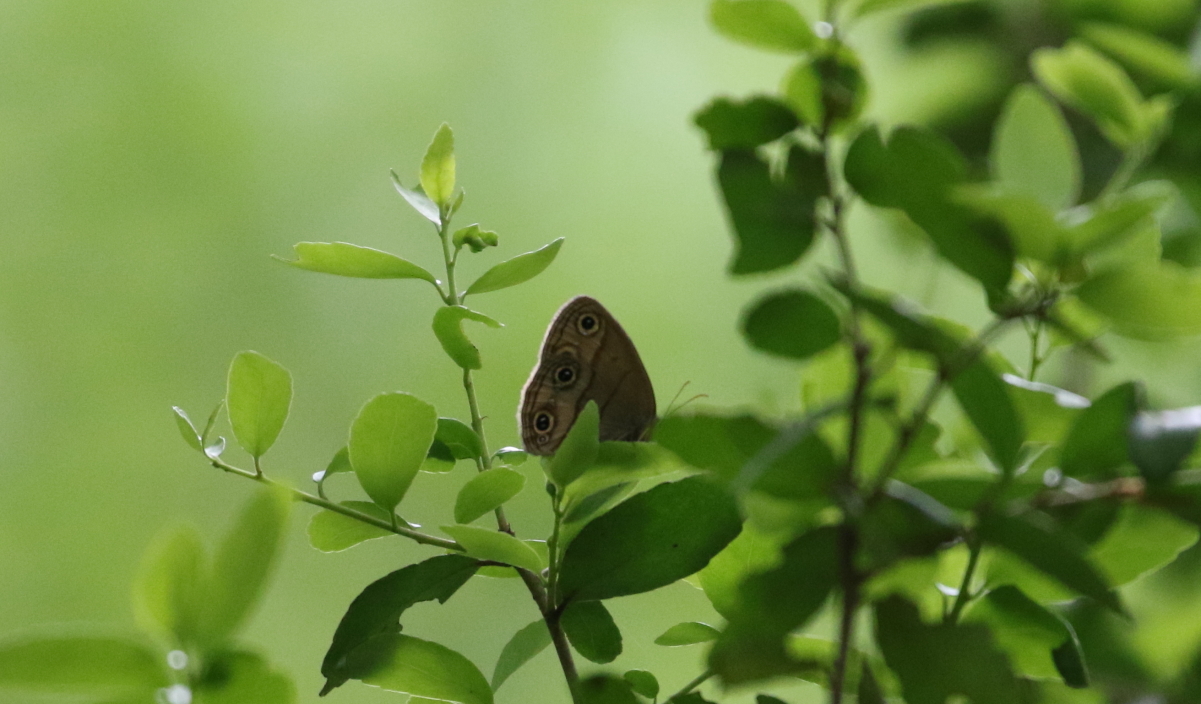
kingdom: Animalia
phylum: Arthropoda
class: Insecta
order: Lepidoptera
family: Nymphalidae
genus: Euptychia
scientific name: Euptychia cymela
